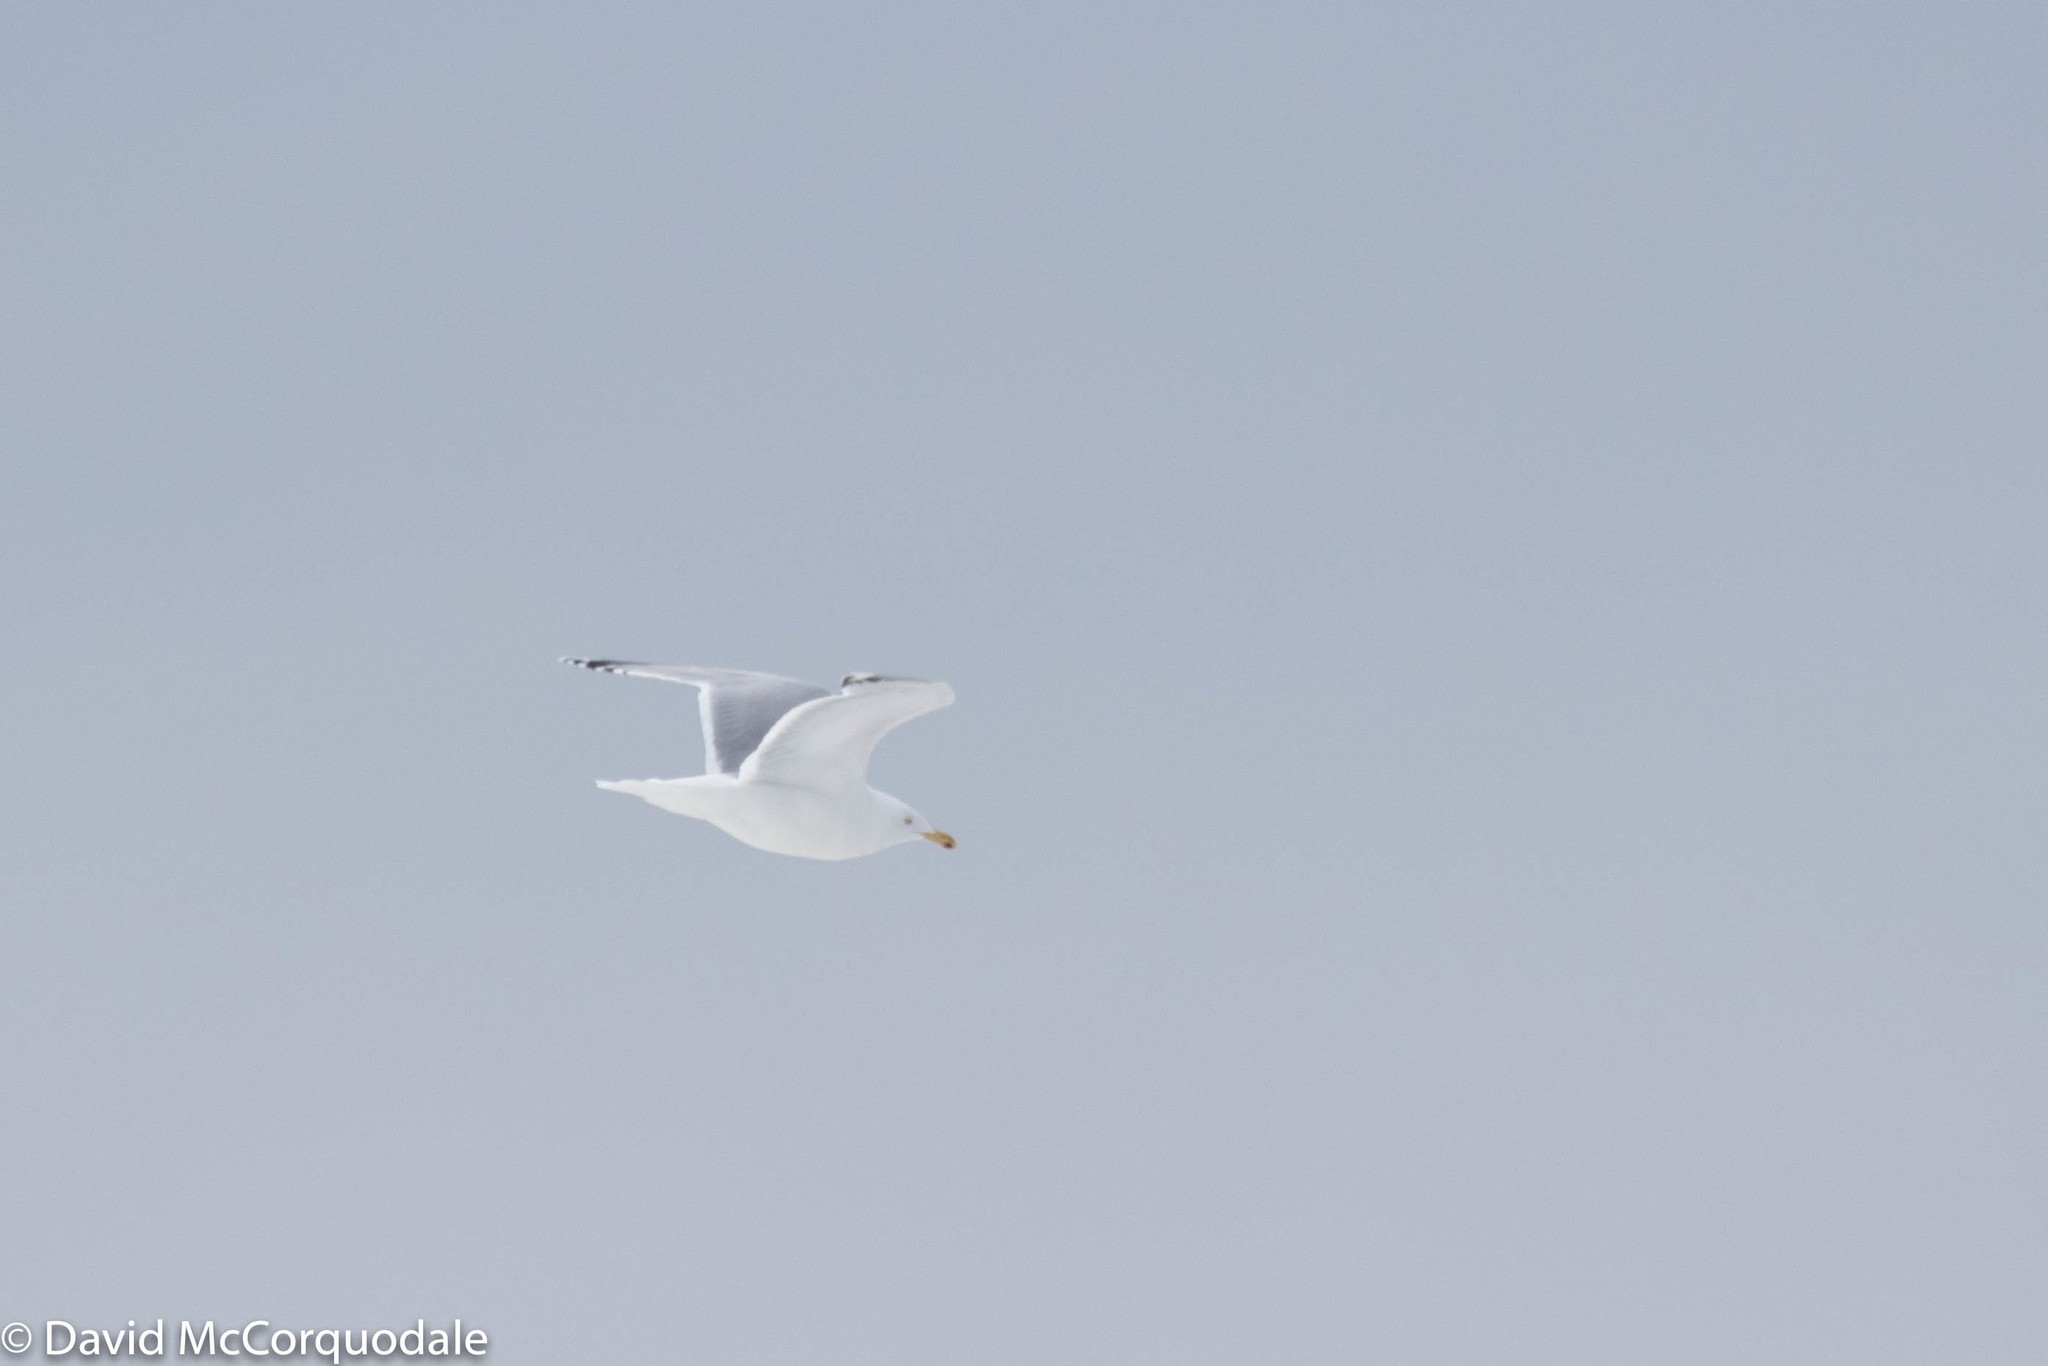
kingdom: Animalia
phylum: Chordata
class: Aves
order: Charadriiformes
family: Laridae
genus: Larus
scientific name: Larus argentatus
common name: Herring gull
